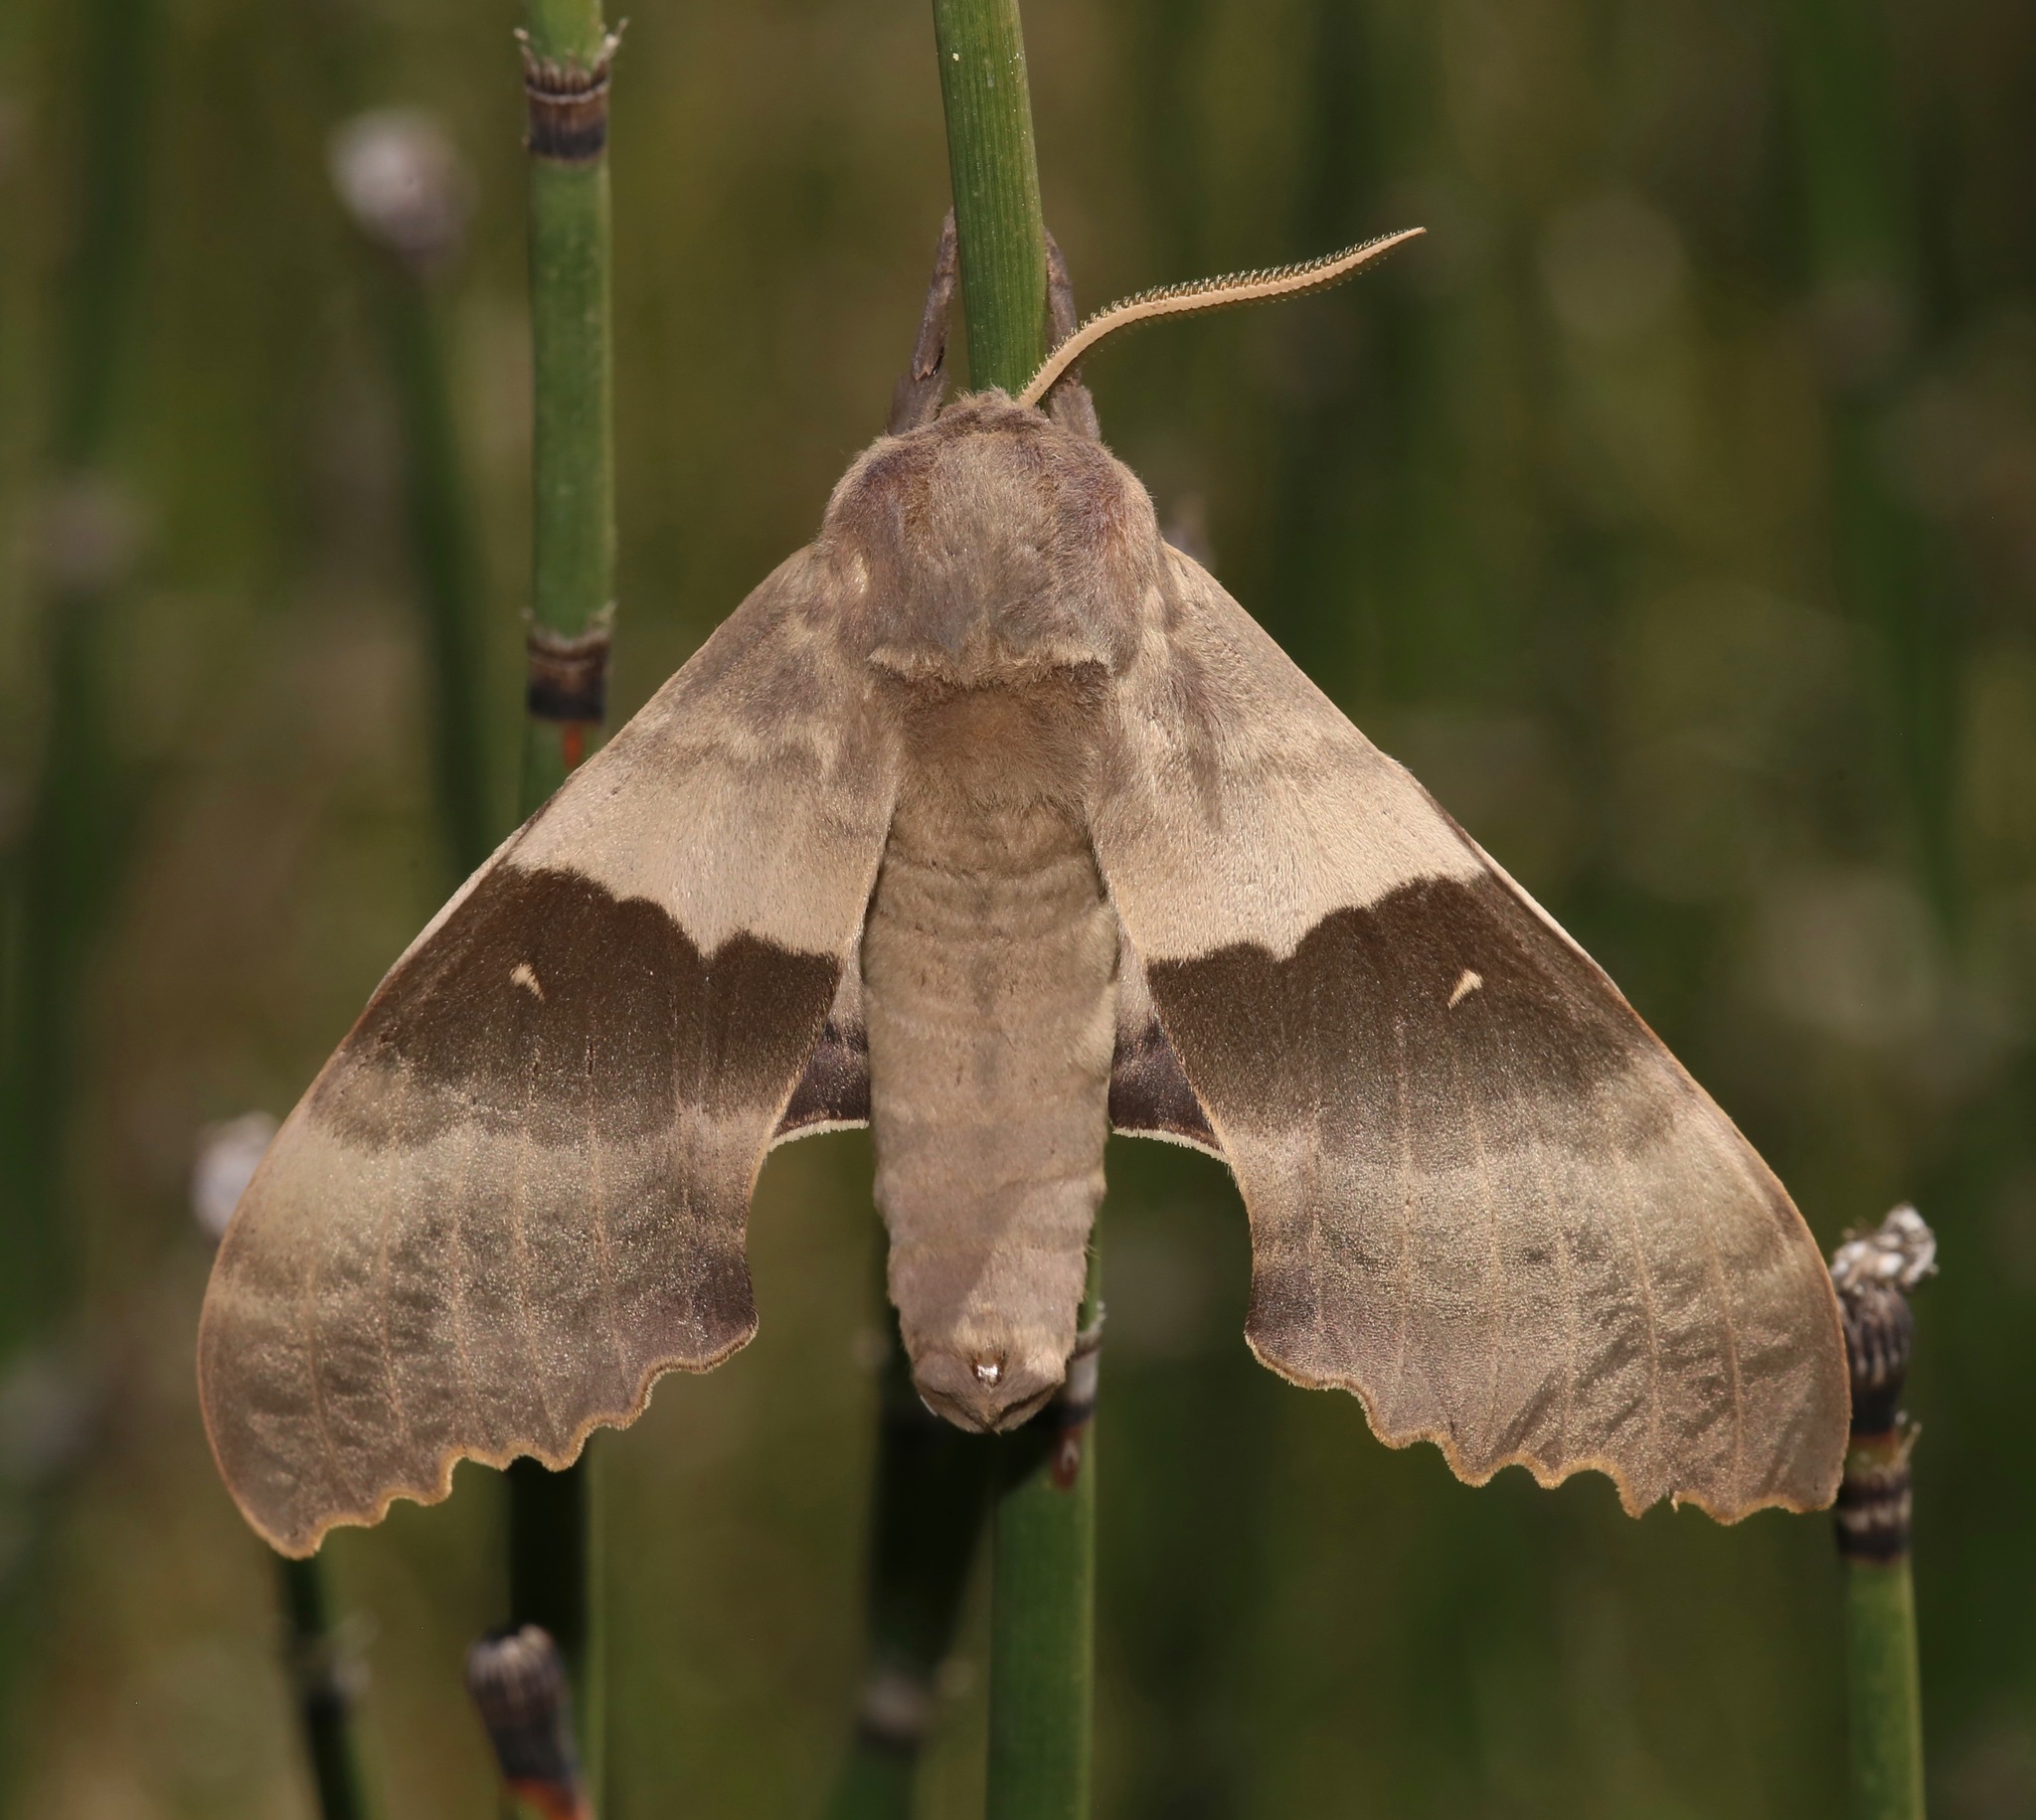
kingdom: Animalia
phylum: Arthropoda
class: Insecta
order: Lepidoptera
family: Sphingidae
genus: Pachysphinx
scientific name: Pachysphinx modesta
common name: Big poplar sphinx
